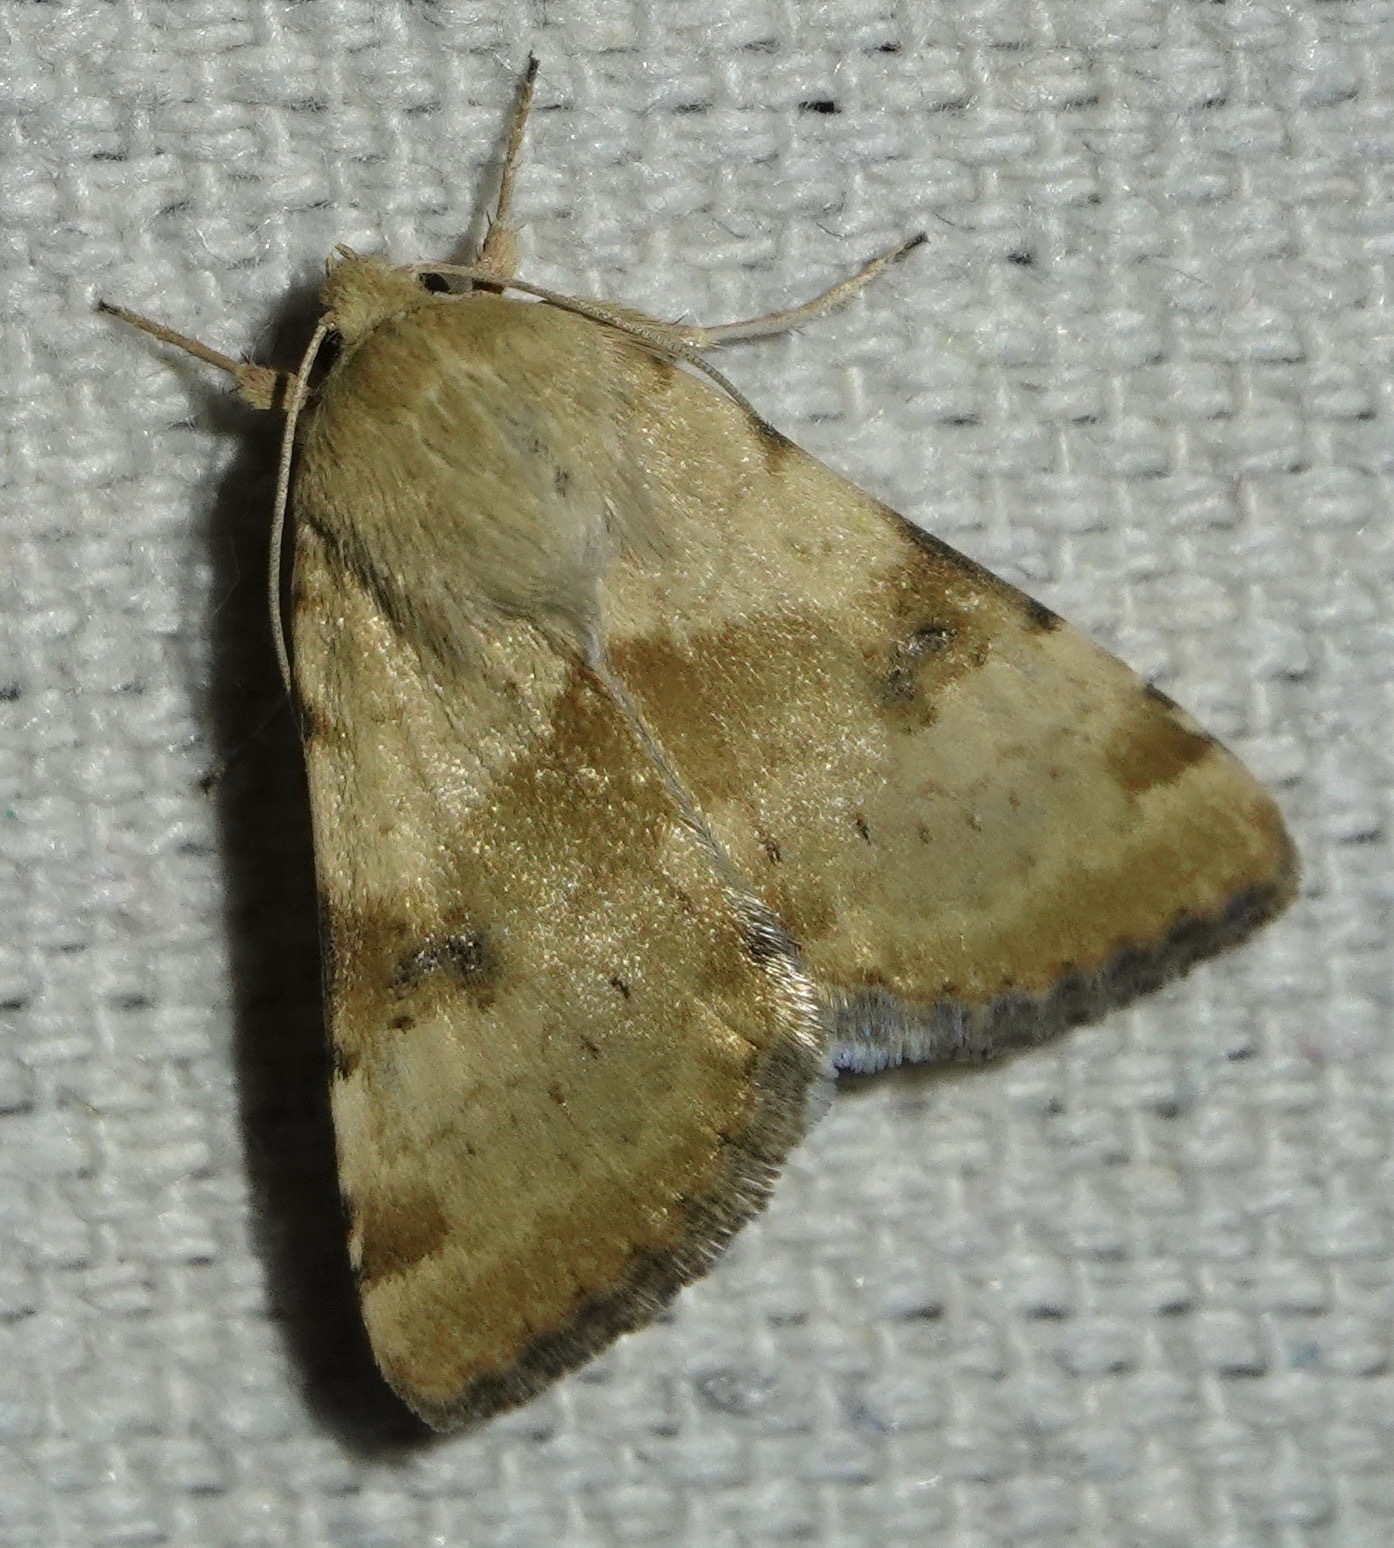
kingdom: Animalia
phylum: Arthropoda
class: Insecta
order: Lepidoptera
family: Noctuidae
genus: Heliothis
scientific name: Heliothis phloxiphaga
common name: Darker spotted straw moth
